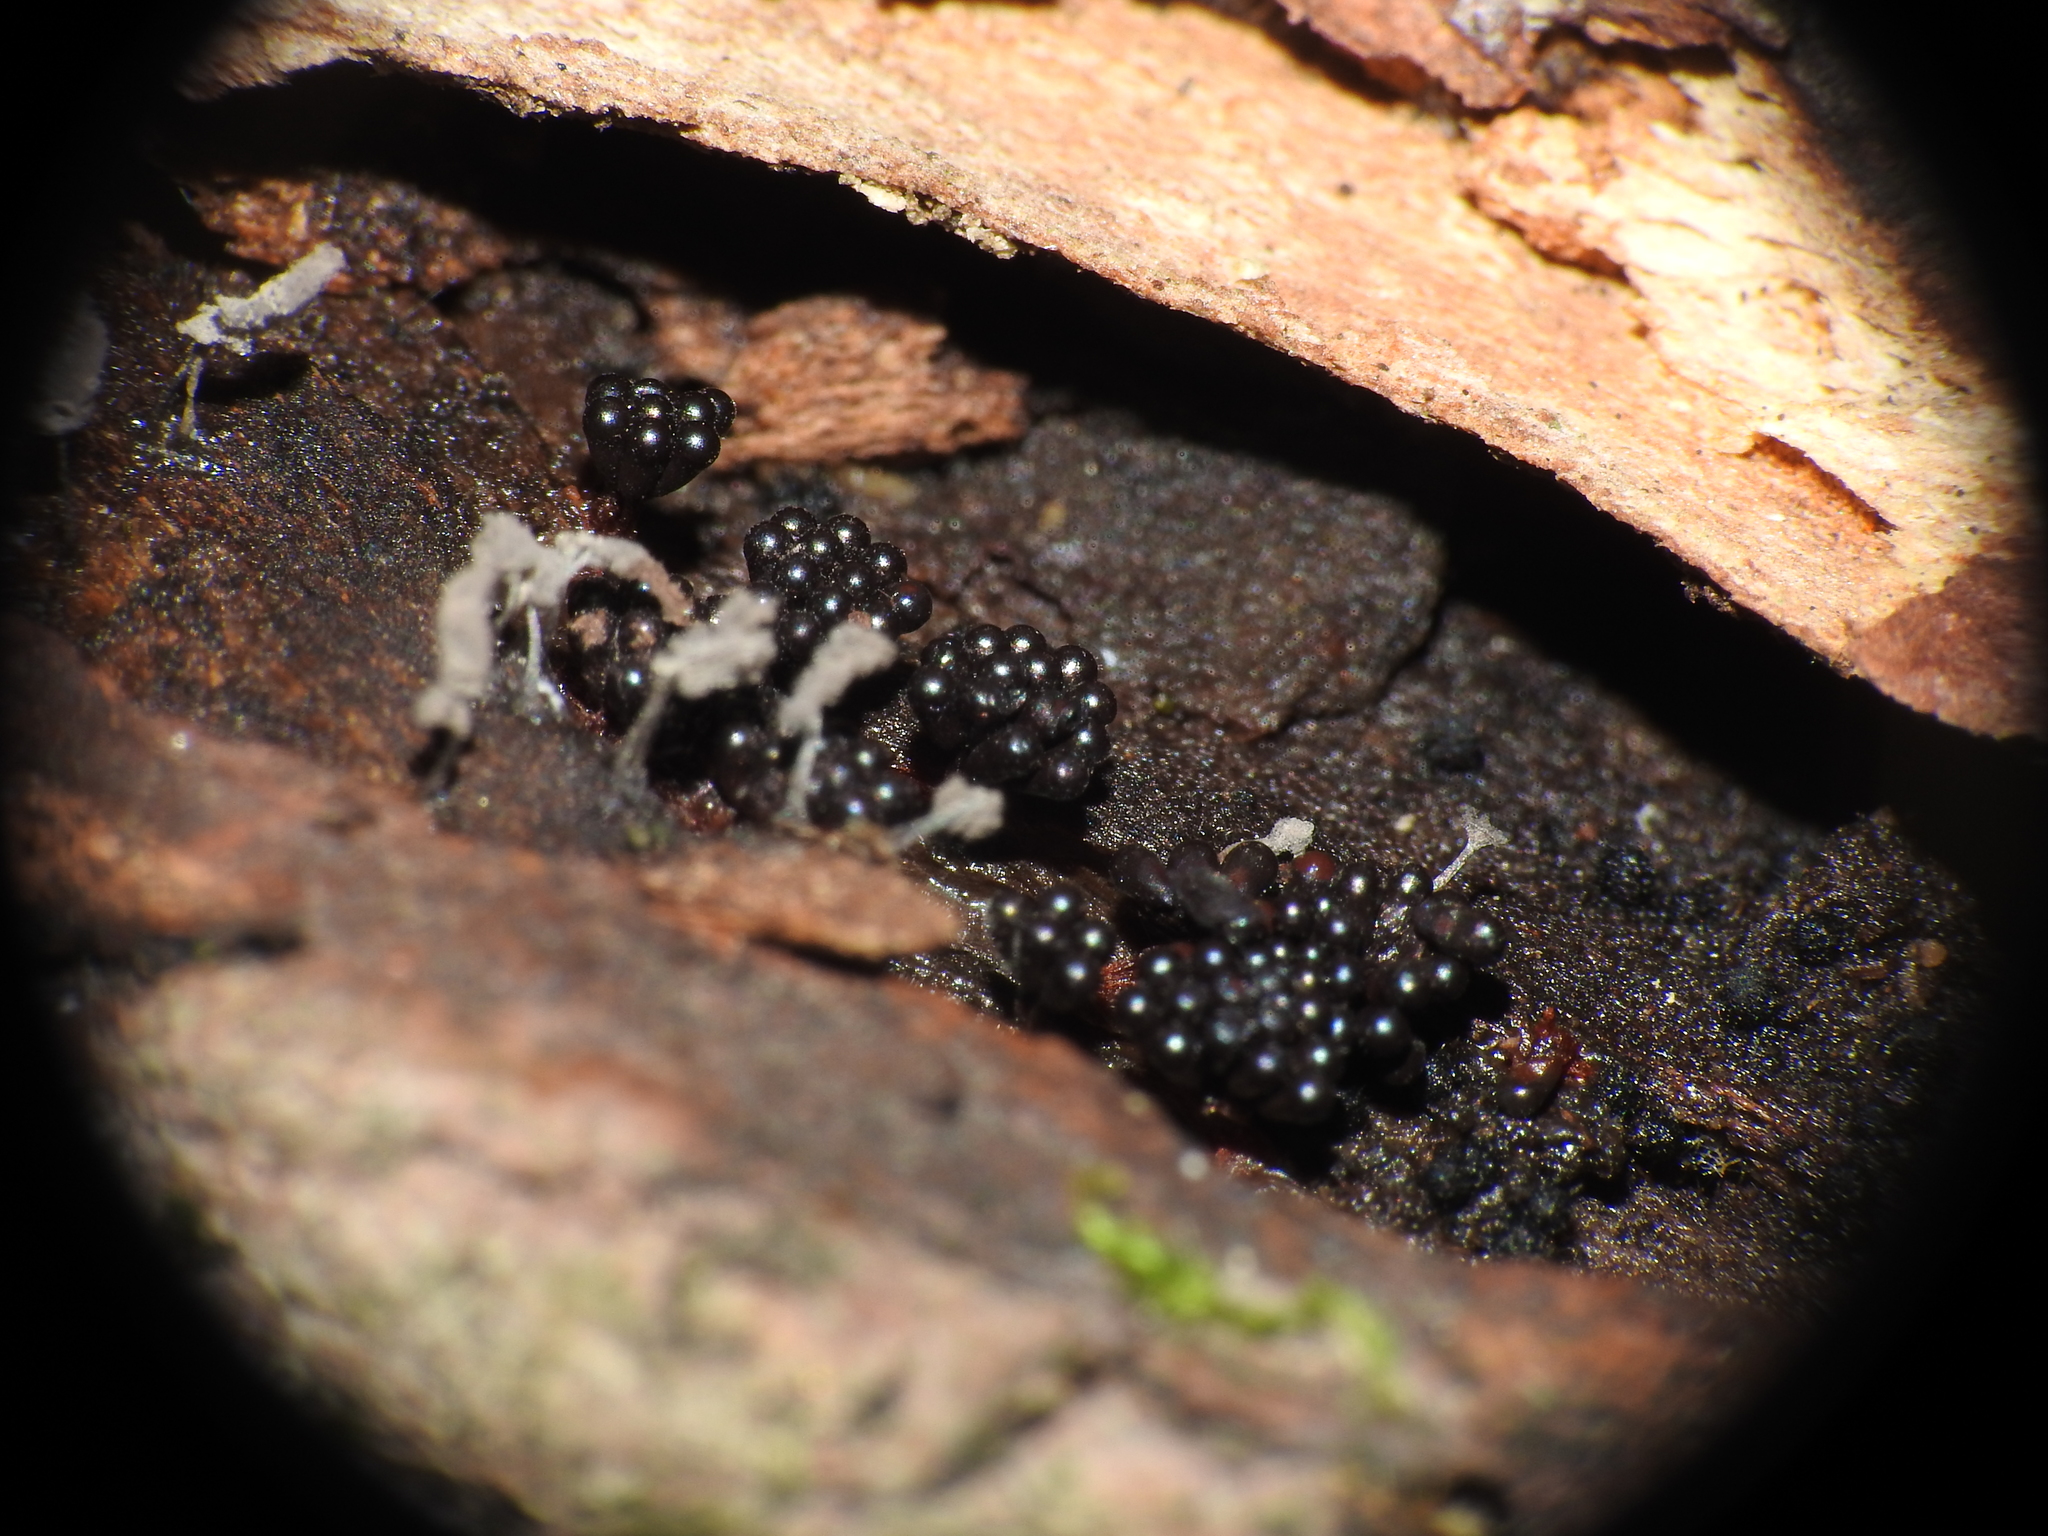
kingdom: Protozoa
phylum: Mycetozoa
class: Myxomycetes
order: Trichiales
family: Trichiaceae
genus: Metatrichia
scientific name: Metatrichia vesparia
